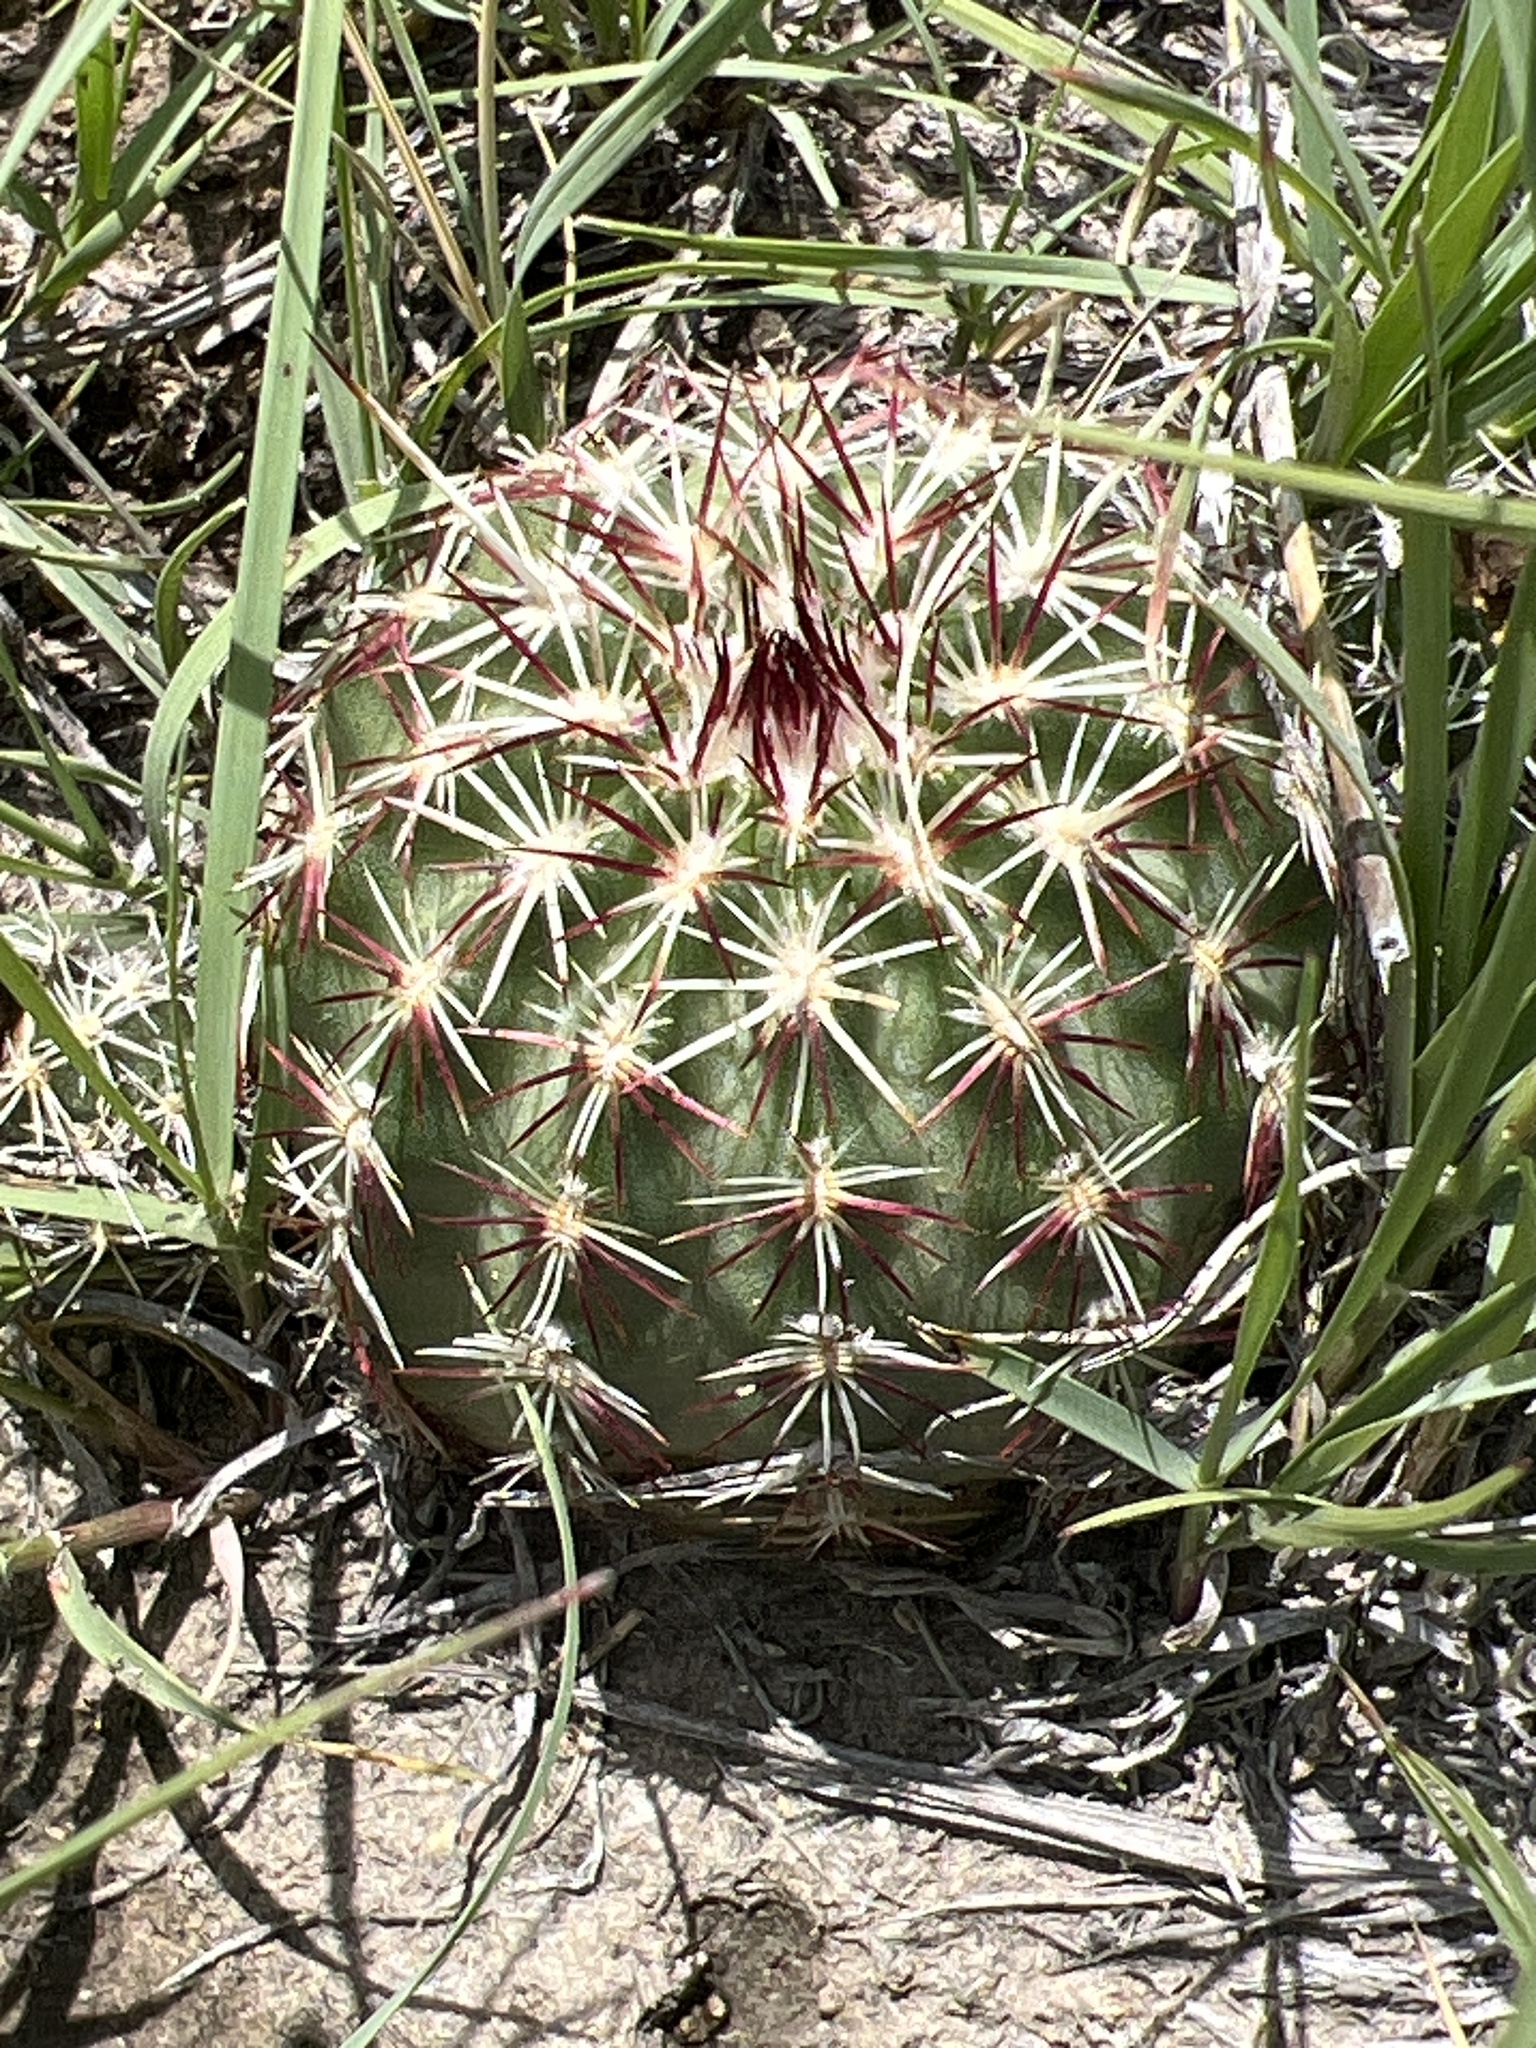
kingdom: Plantae
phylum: Tracheophyta
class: Magnoliopsida
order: Caryophyllales
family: Cactaceae
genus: Echinocereus
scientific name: Echinocereus viridiflorus
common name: Nylon hedgehog cactus
